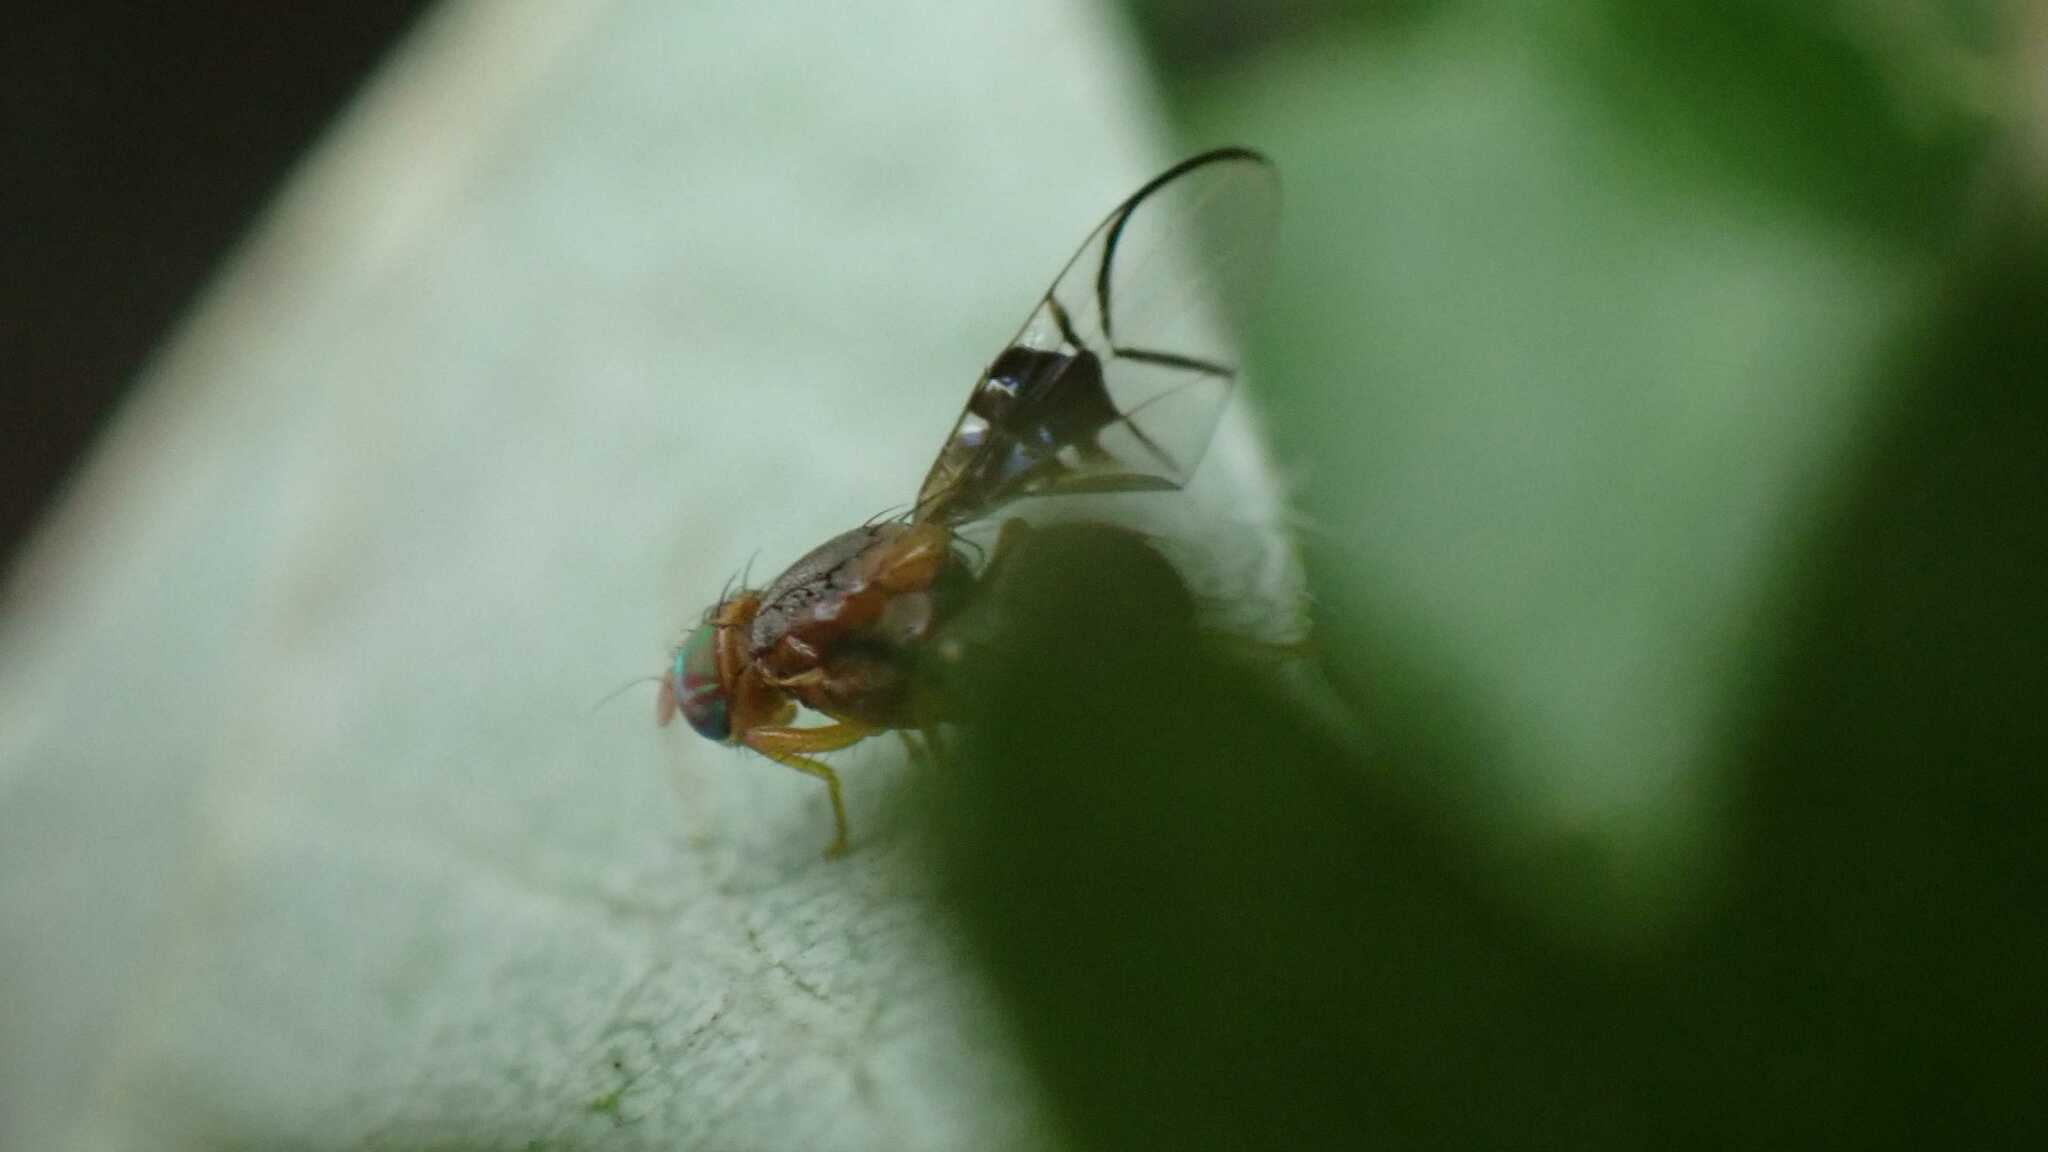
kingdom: Animalia
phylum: Arthropoda
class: Insecta
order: Diptera
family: Tephritidae
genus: Anomoia
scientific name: Anomoia purmunda
